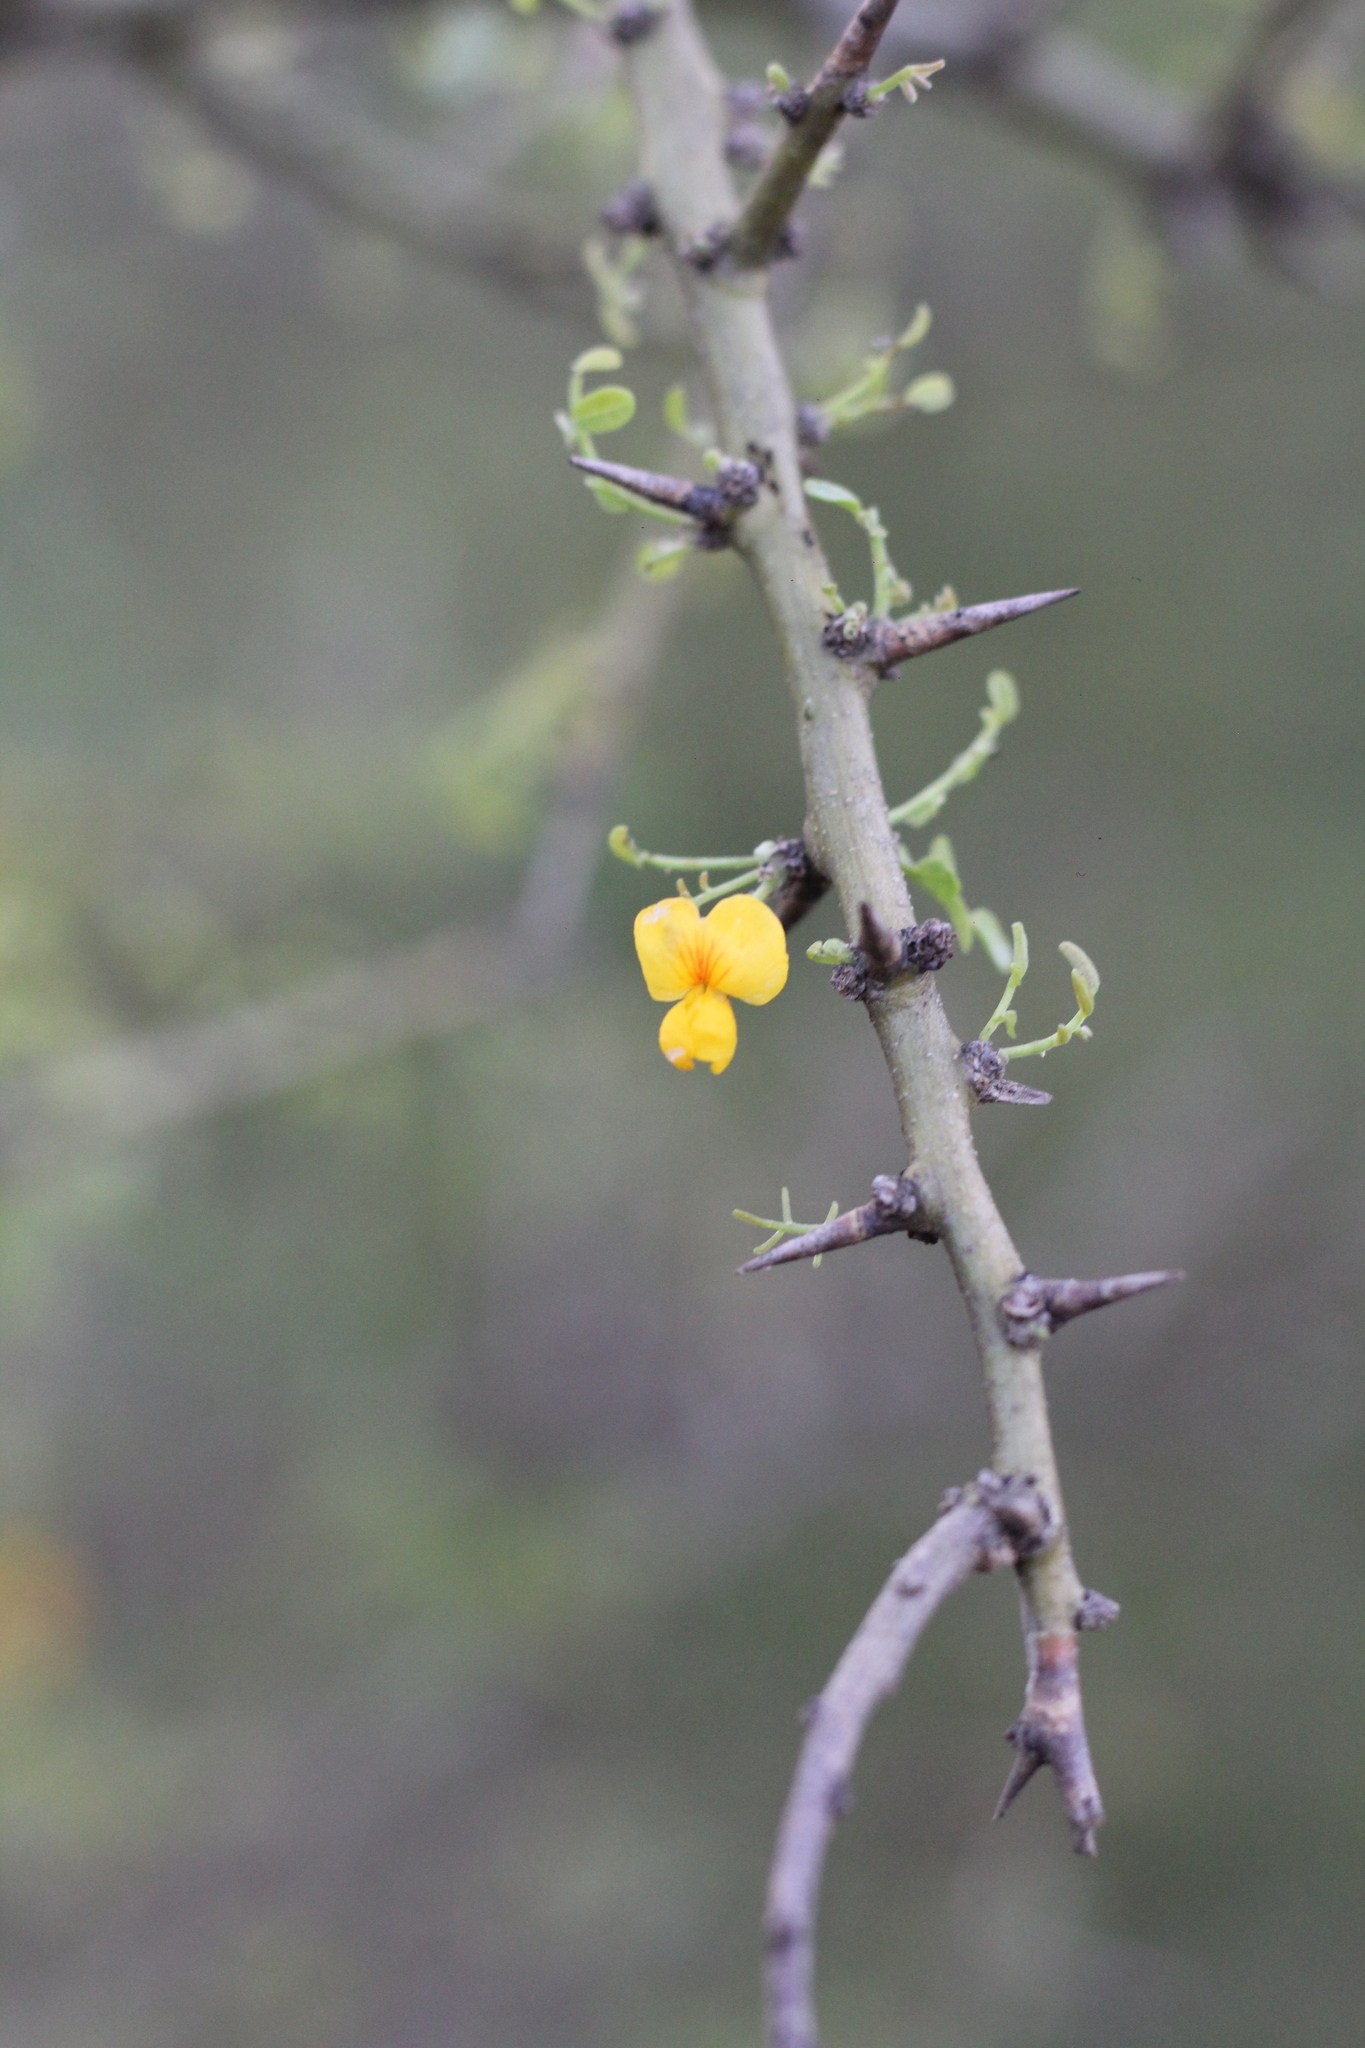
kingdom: Plantae
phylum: Tracheophyta
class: Magnoliopsida
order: Fabales
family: Fabaceae
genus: Geoffroea
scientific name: Geoffroea decorticans
